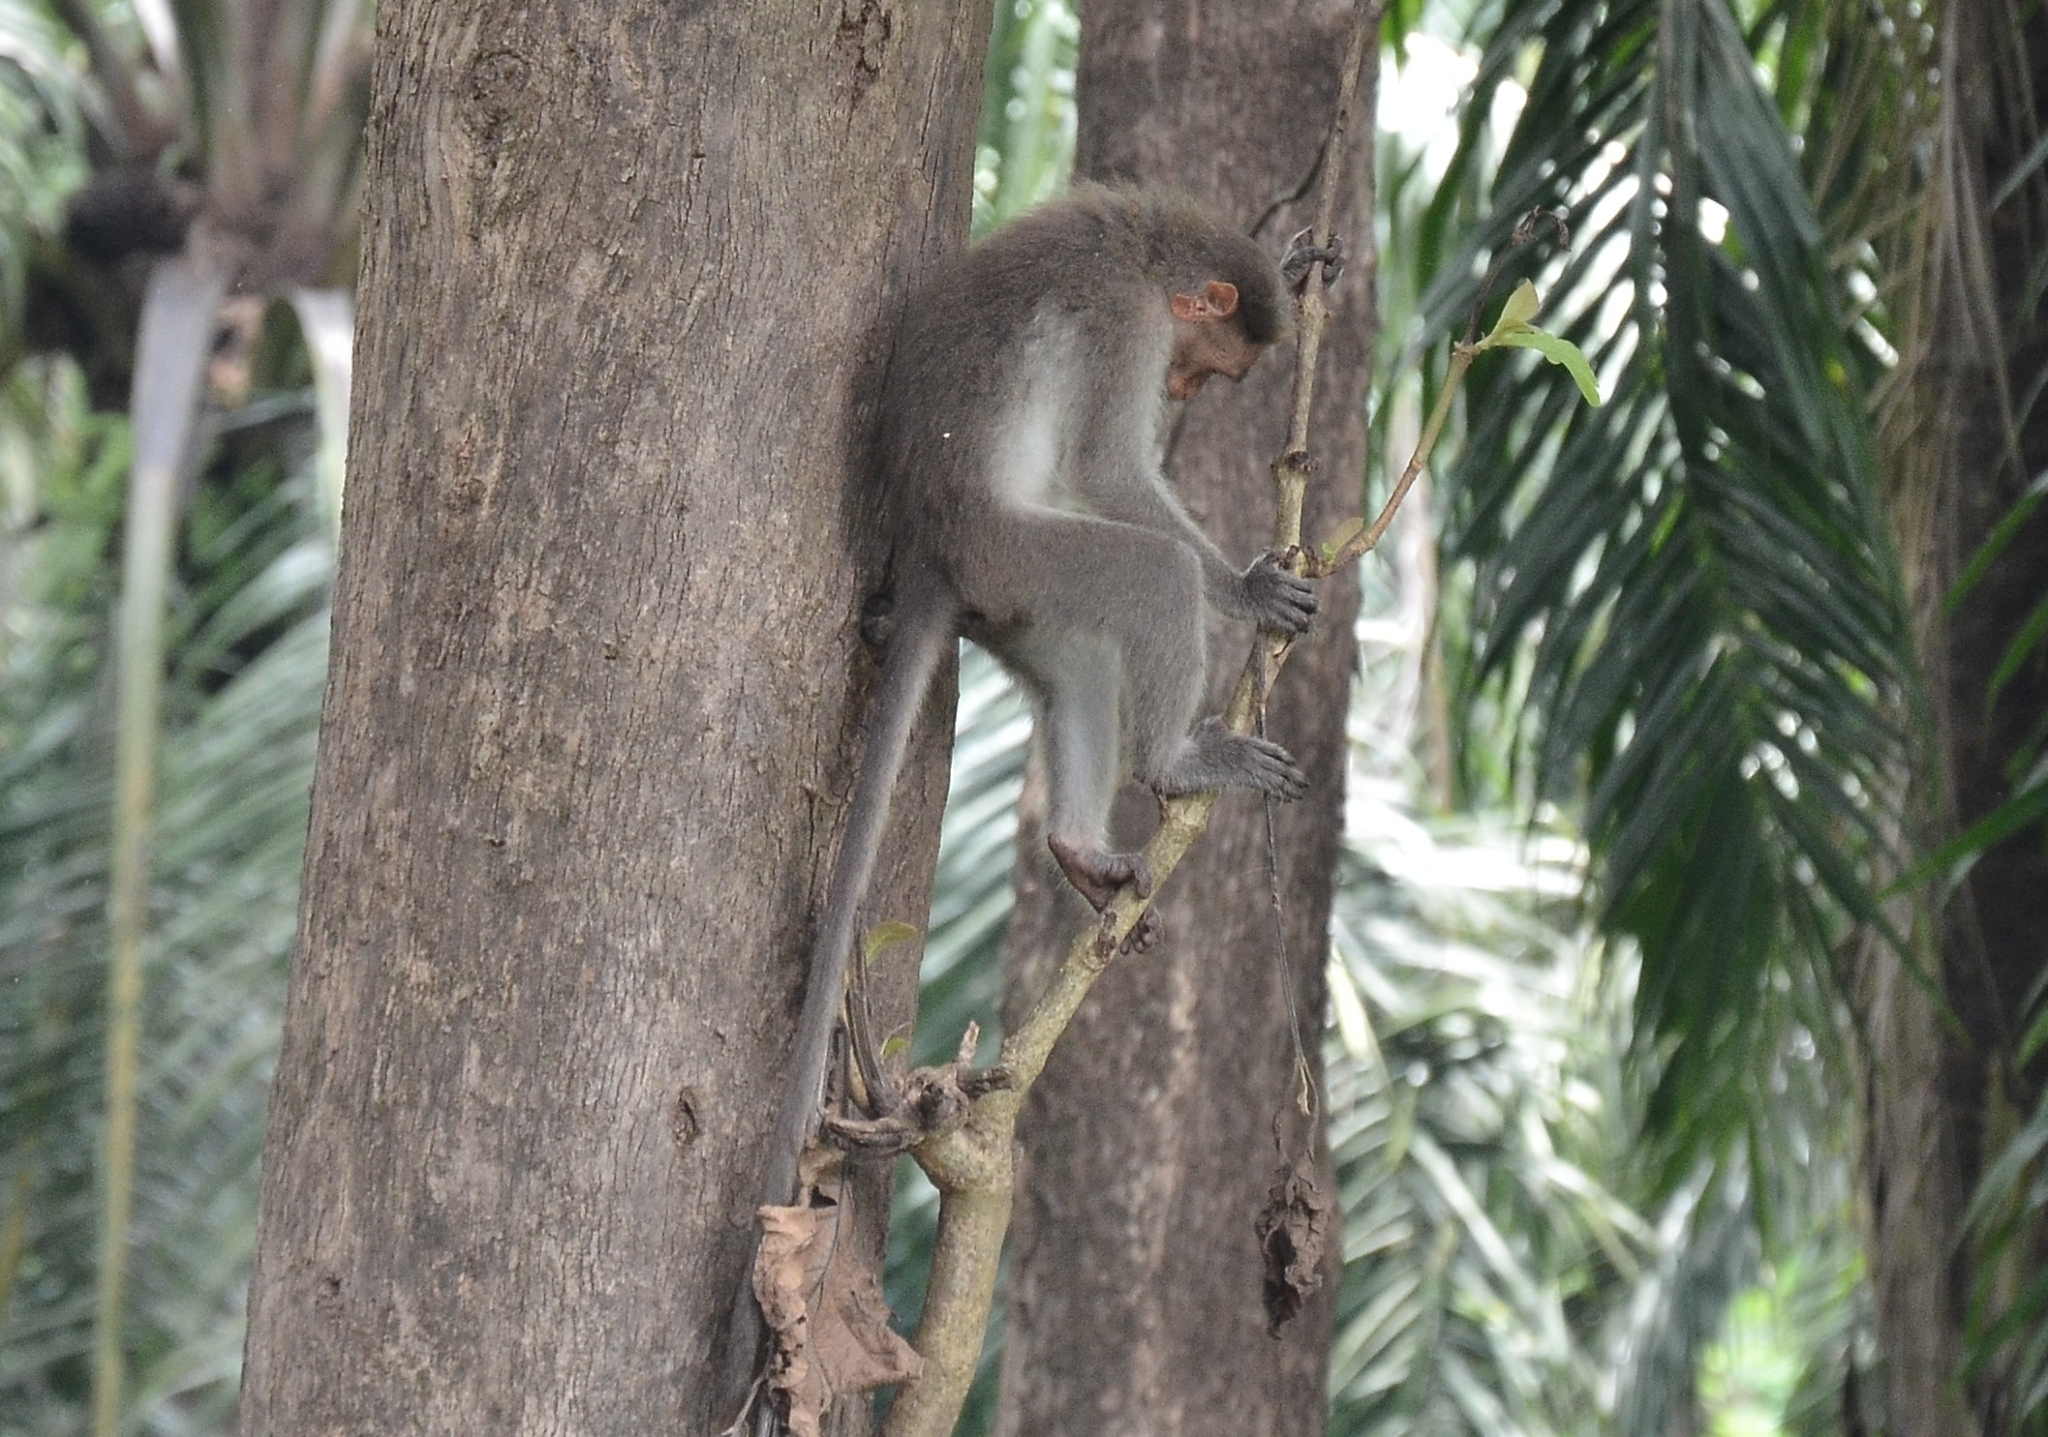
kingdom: Animalia
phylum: Chordata
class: Mammalia
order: Primates
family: Cercopithecidae
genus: Macaca
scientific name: Macaca radiata
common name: Bonnet macaque
